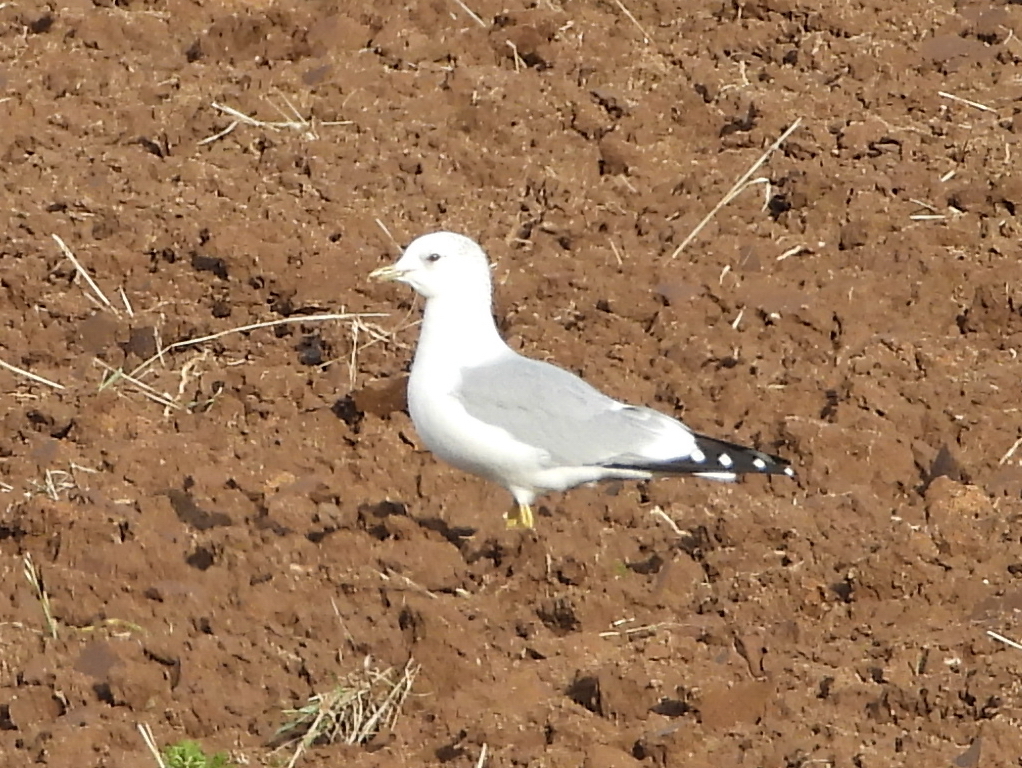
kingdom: Animalia
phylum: Chordata
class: Aves
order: Charadriiformes
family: Laridae
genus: Larus
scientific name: Larus canus
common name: Mew gull
